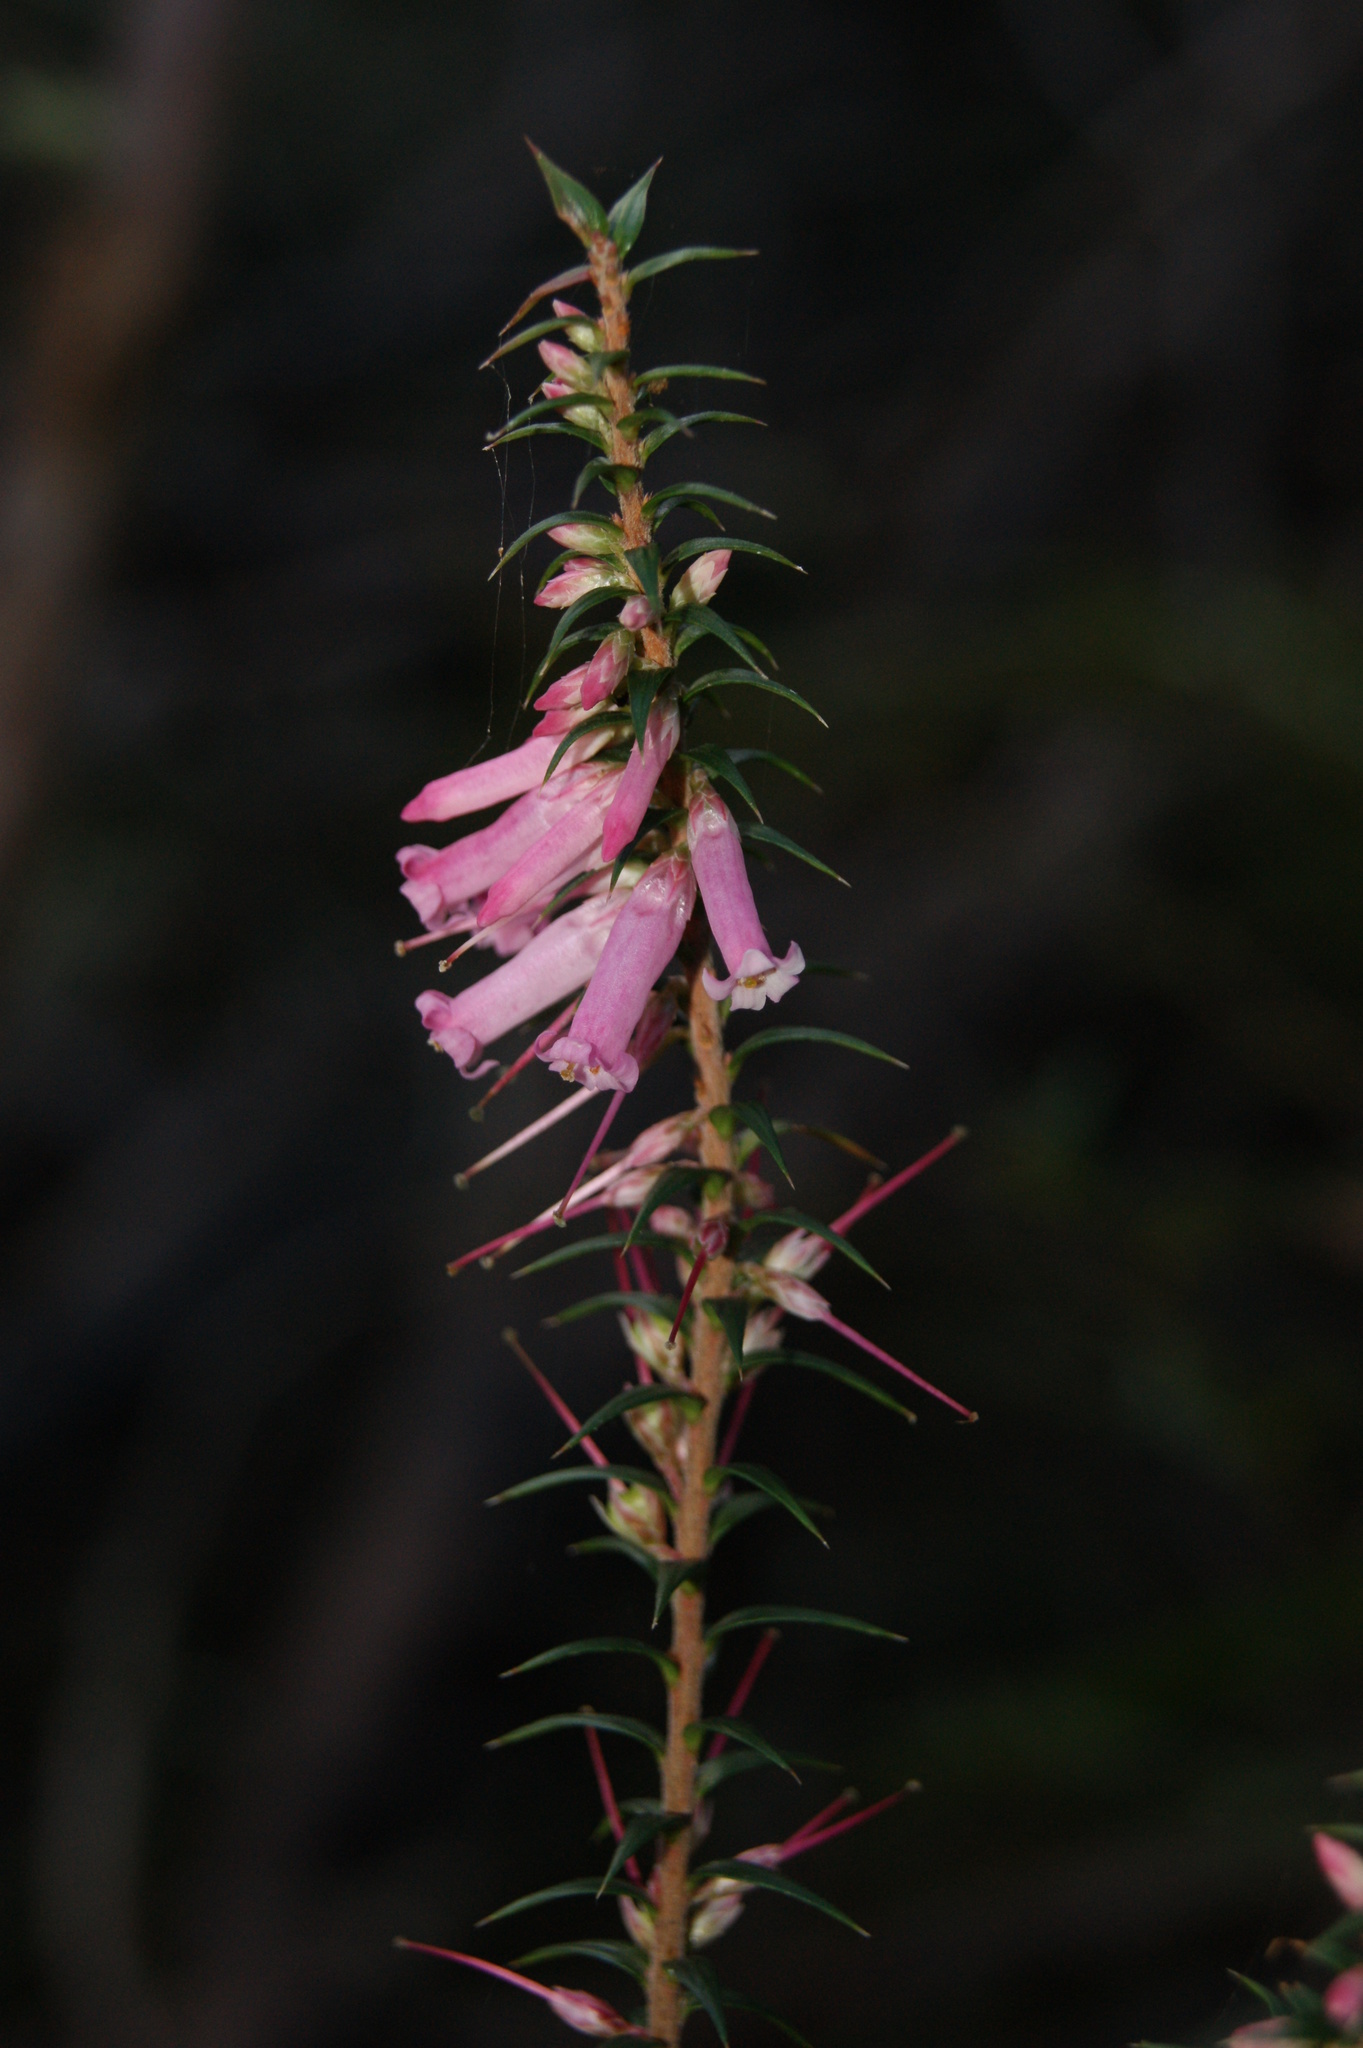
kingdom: Plantae
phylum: Tracheophyta
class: Magnoliopsida
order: Ericales
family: Ericaceae
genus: Epacris
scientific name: Epacris impressa
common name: Common-heath
